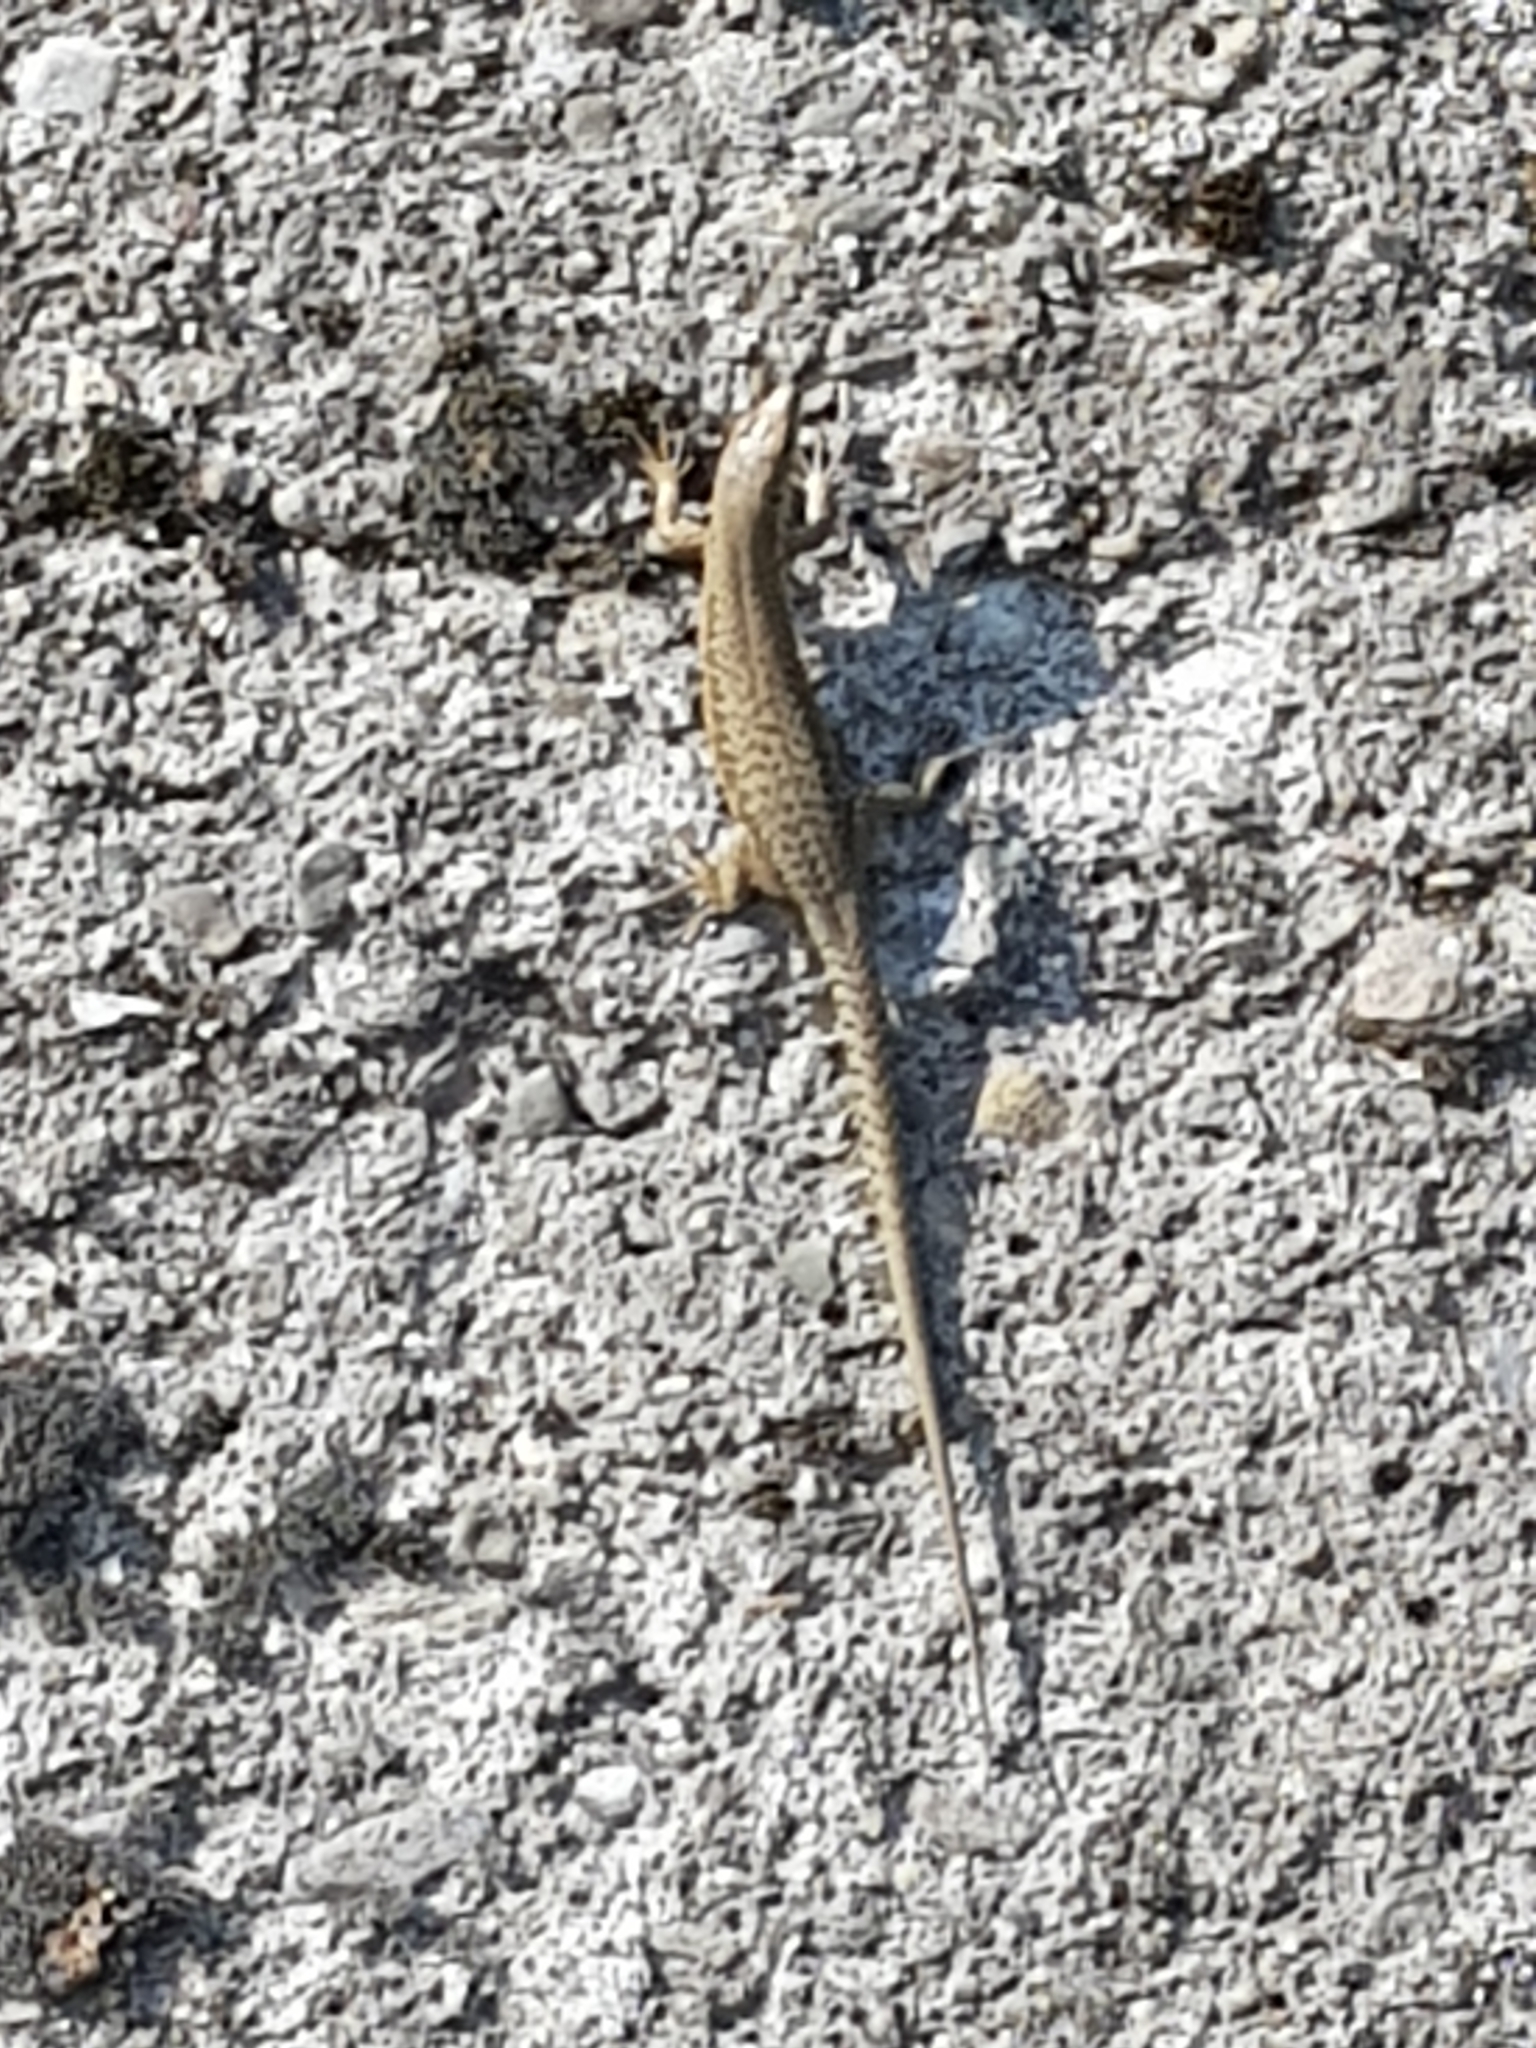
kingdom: Animalia
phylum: Chordata
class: Squamata
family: Lacertidae
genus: Podarcis
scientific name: Podarcis muralis
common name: Common wall lizard
